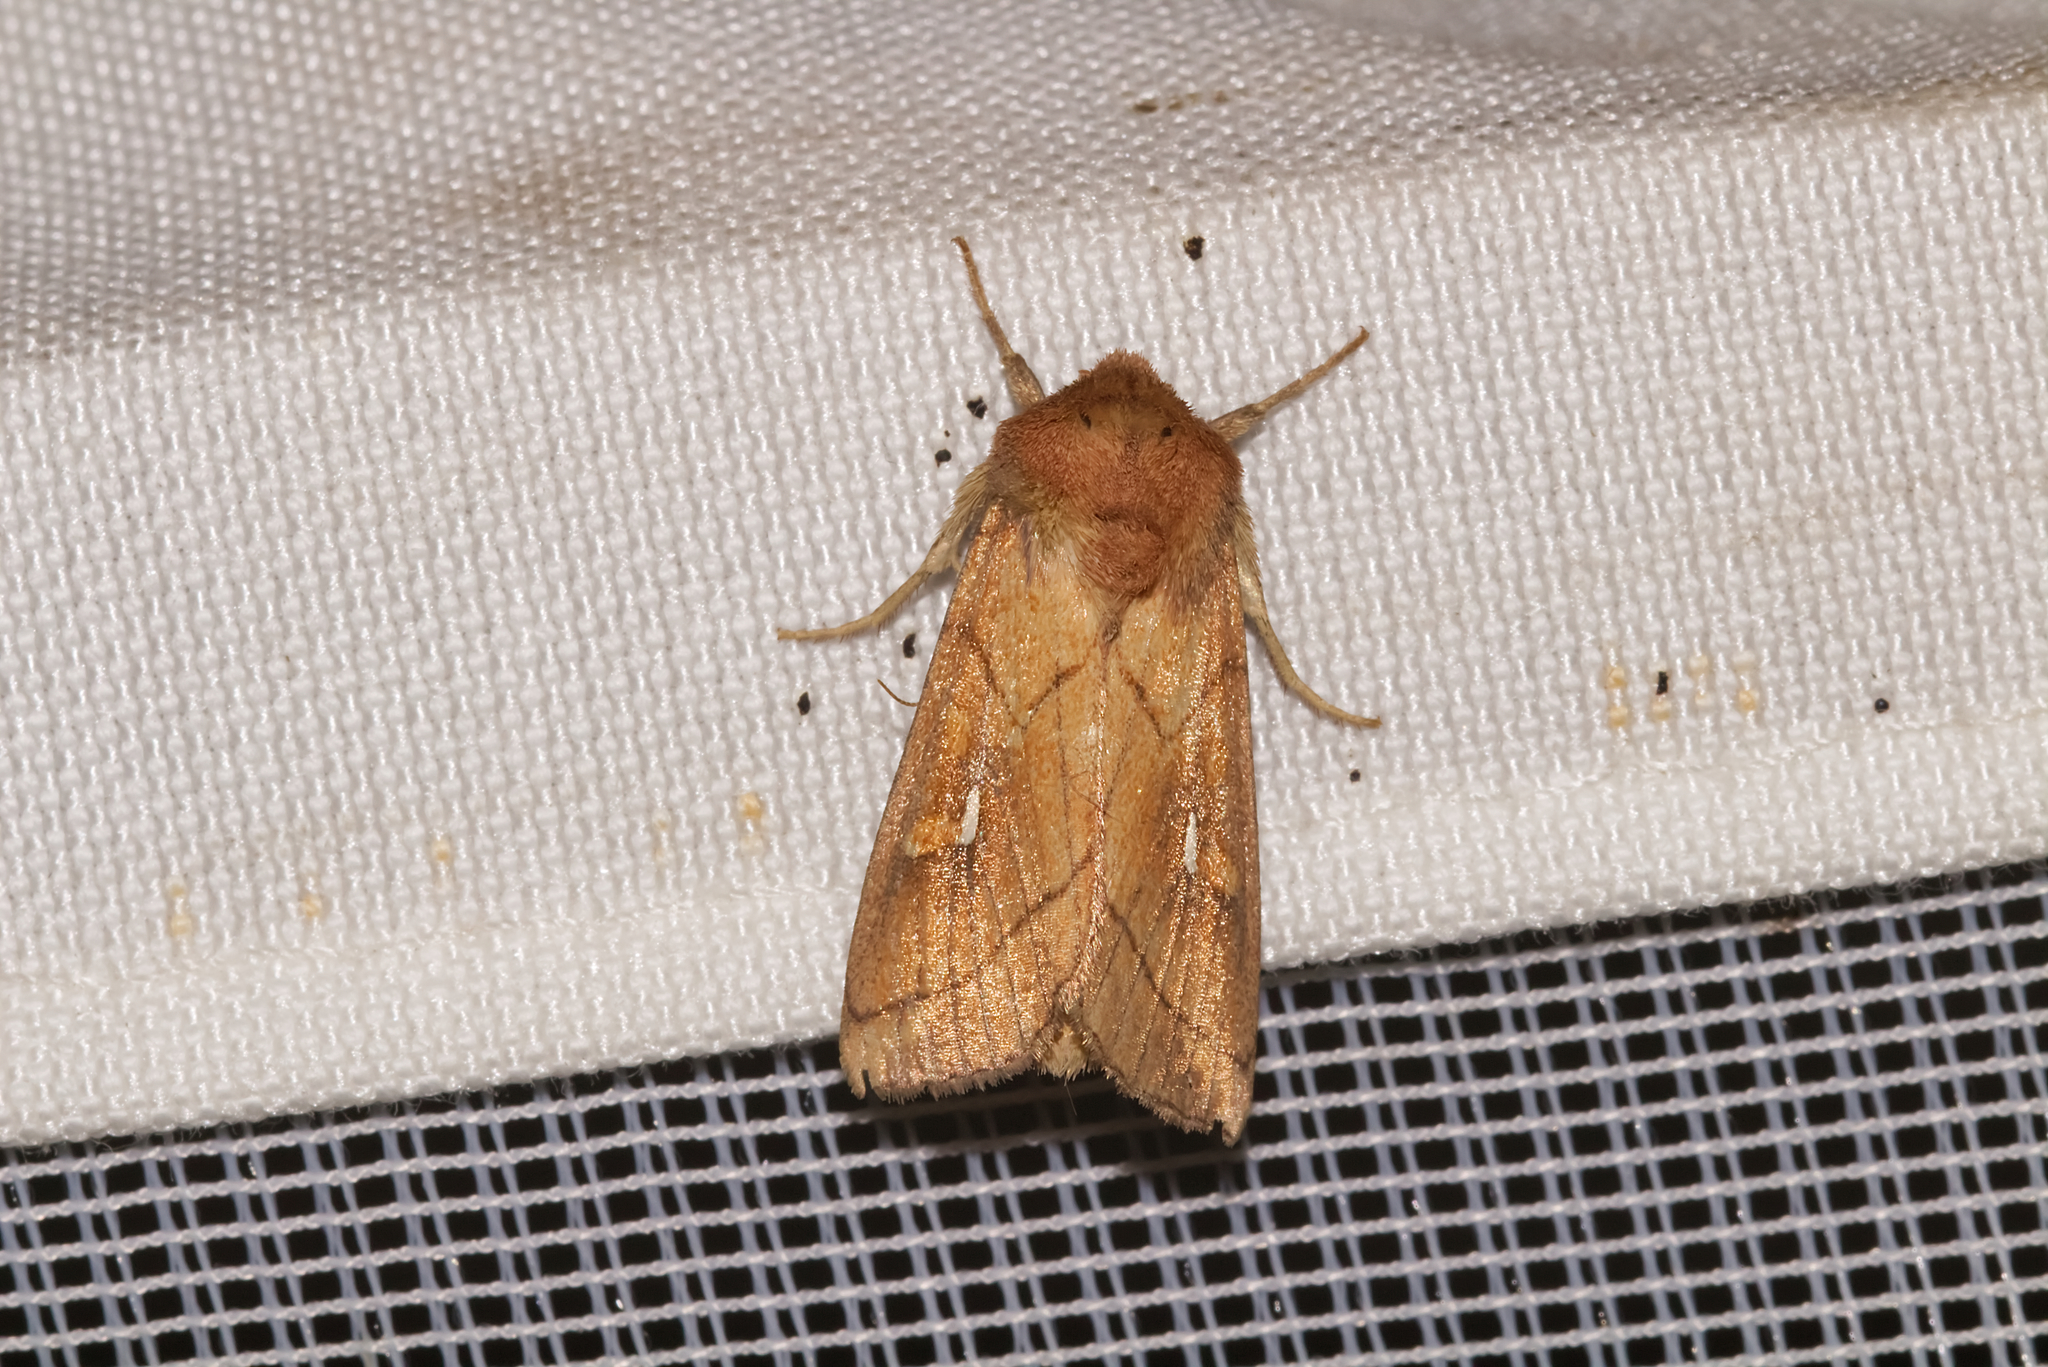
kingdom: Animalia
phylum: Arthropoda
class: Insecta
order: Lepidoptera
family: Noctuidae
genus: Mythimna
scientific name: Mythimna conigera
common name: Brown-line bright-eye
